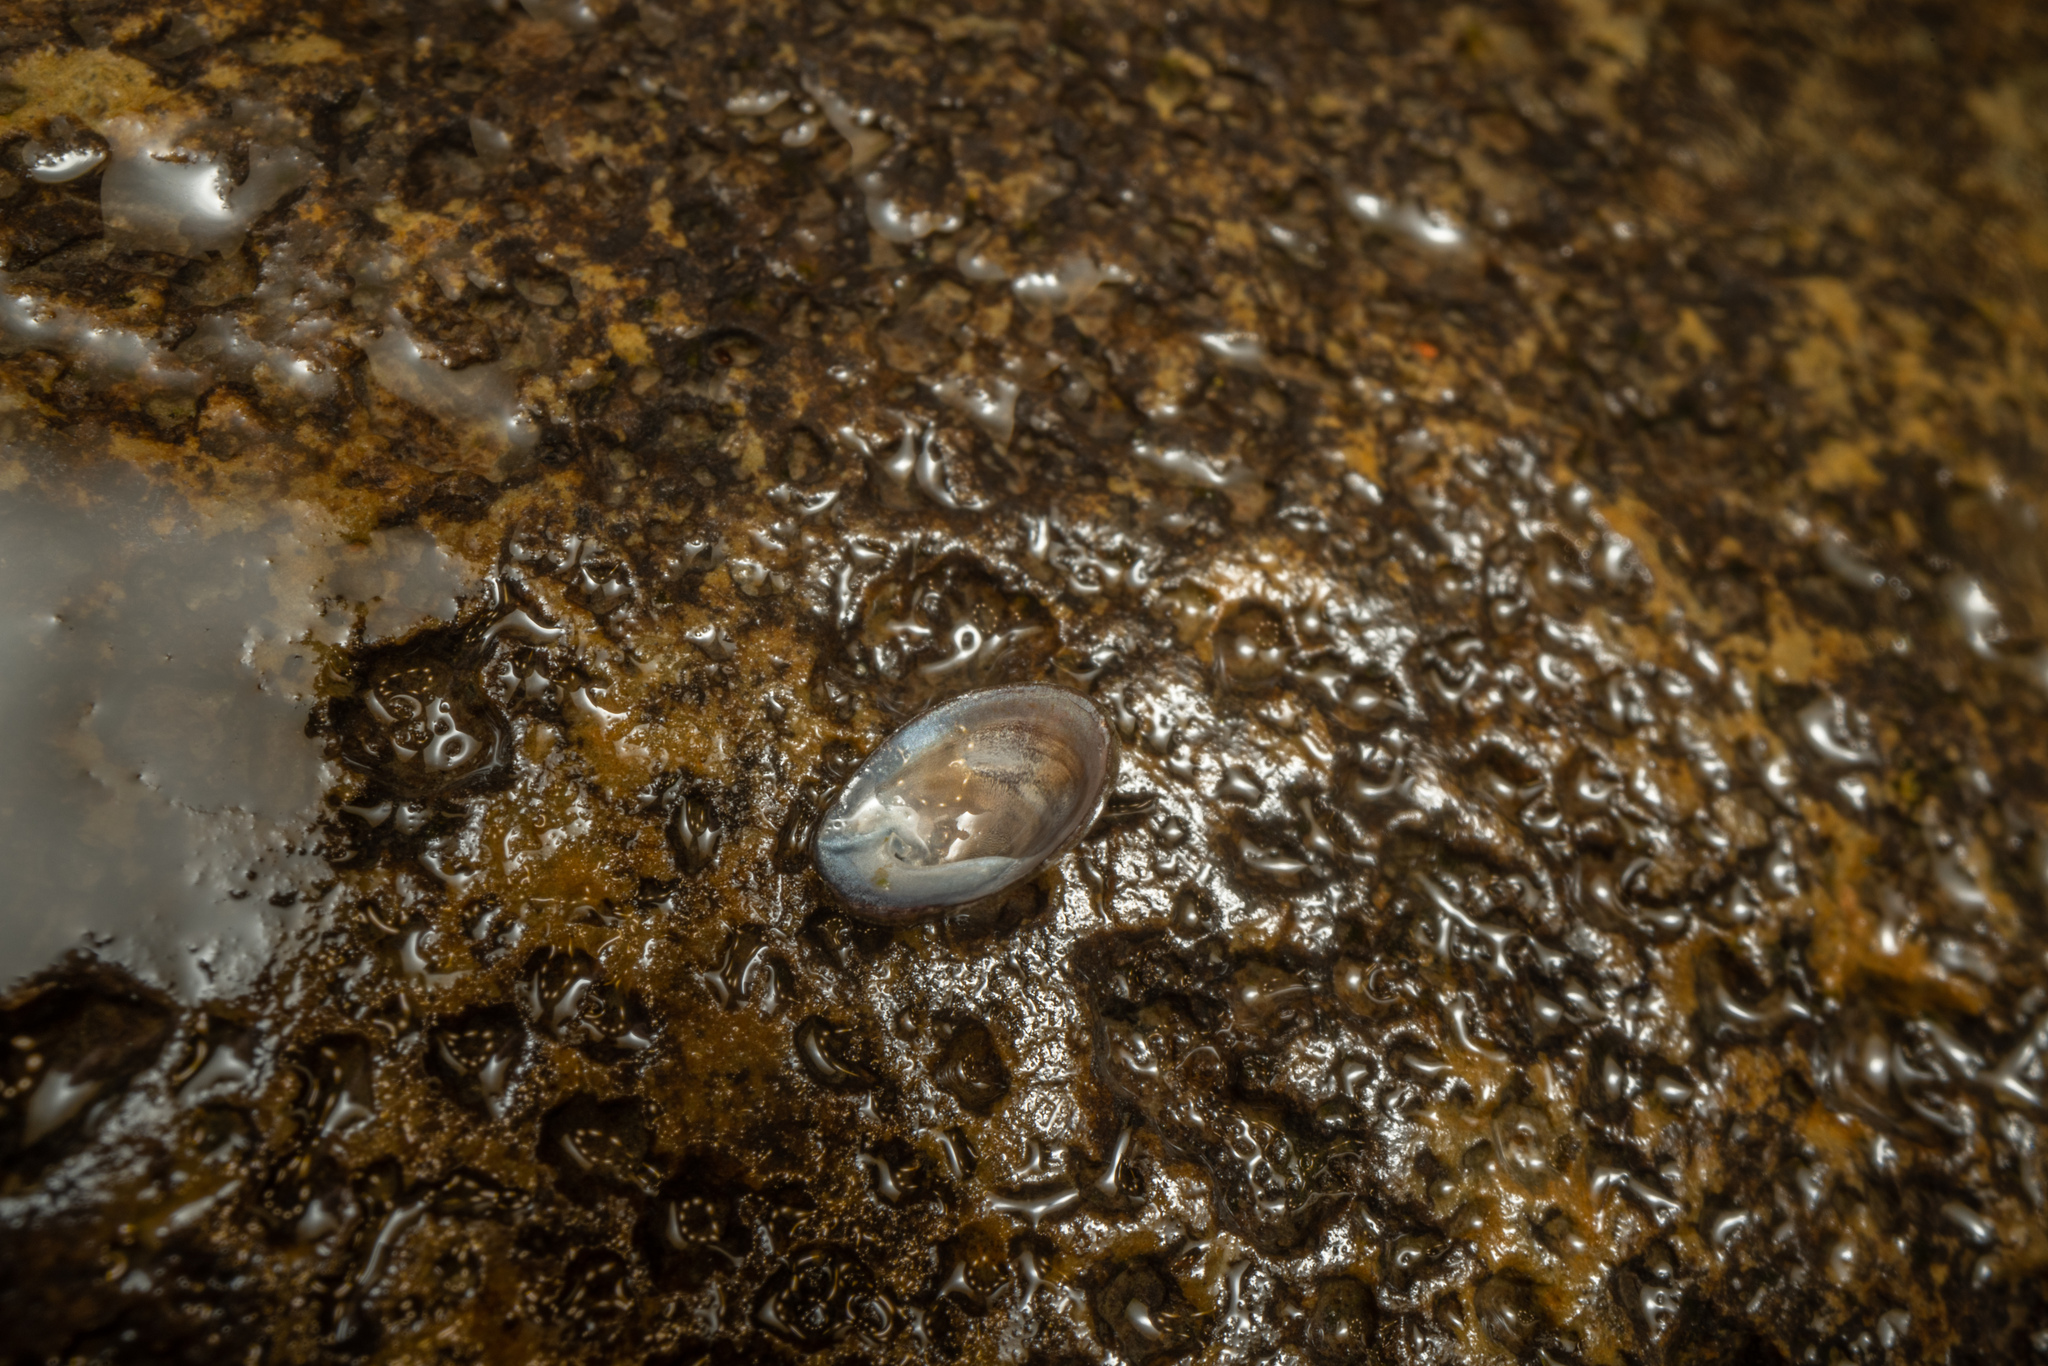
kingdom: Animalia
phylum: Mollusca
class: Gastropoda
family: Latiidae
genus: Latia
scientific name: Latia neritoides
